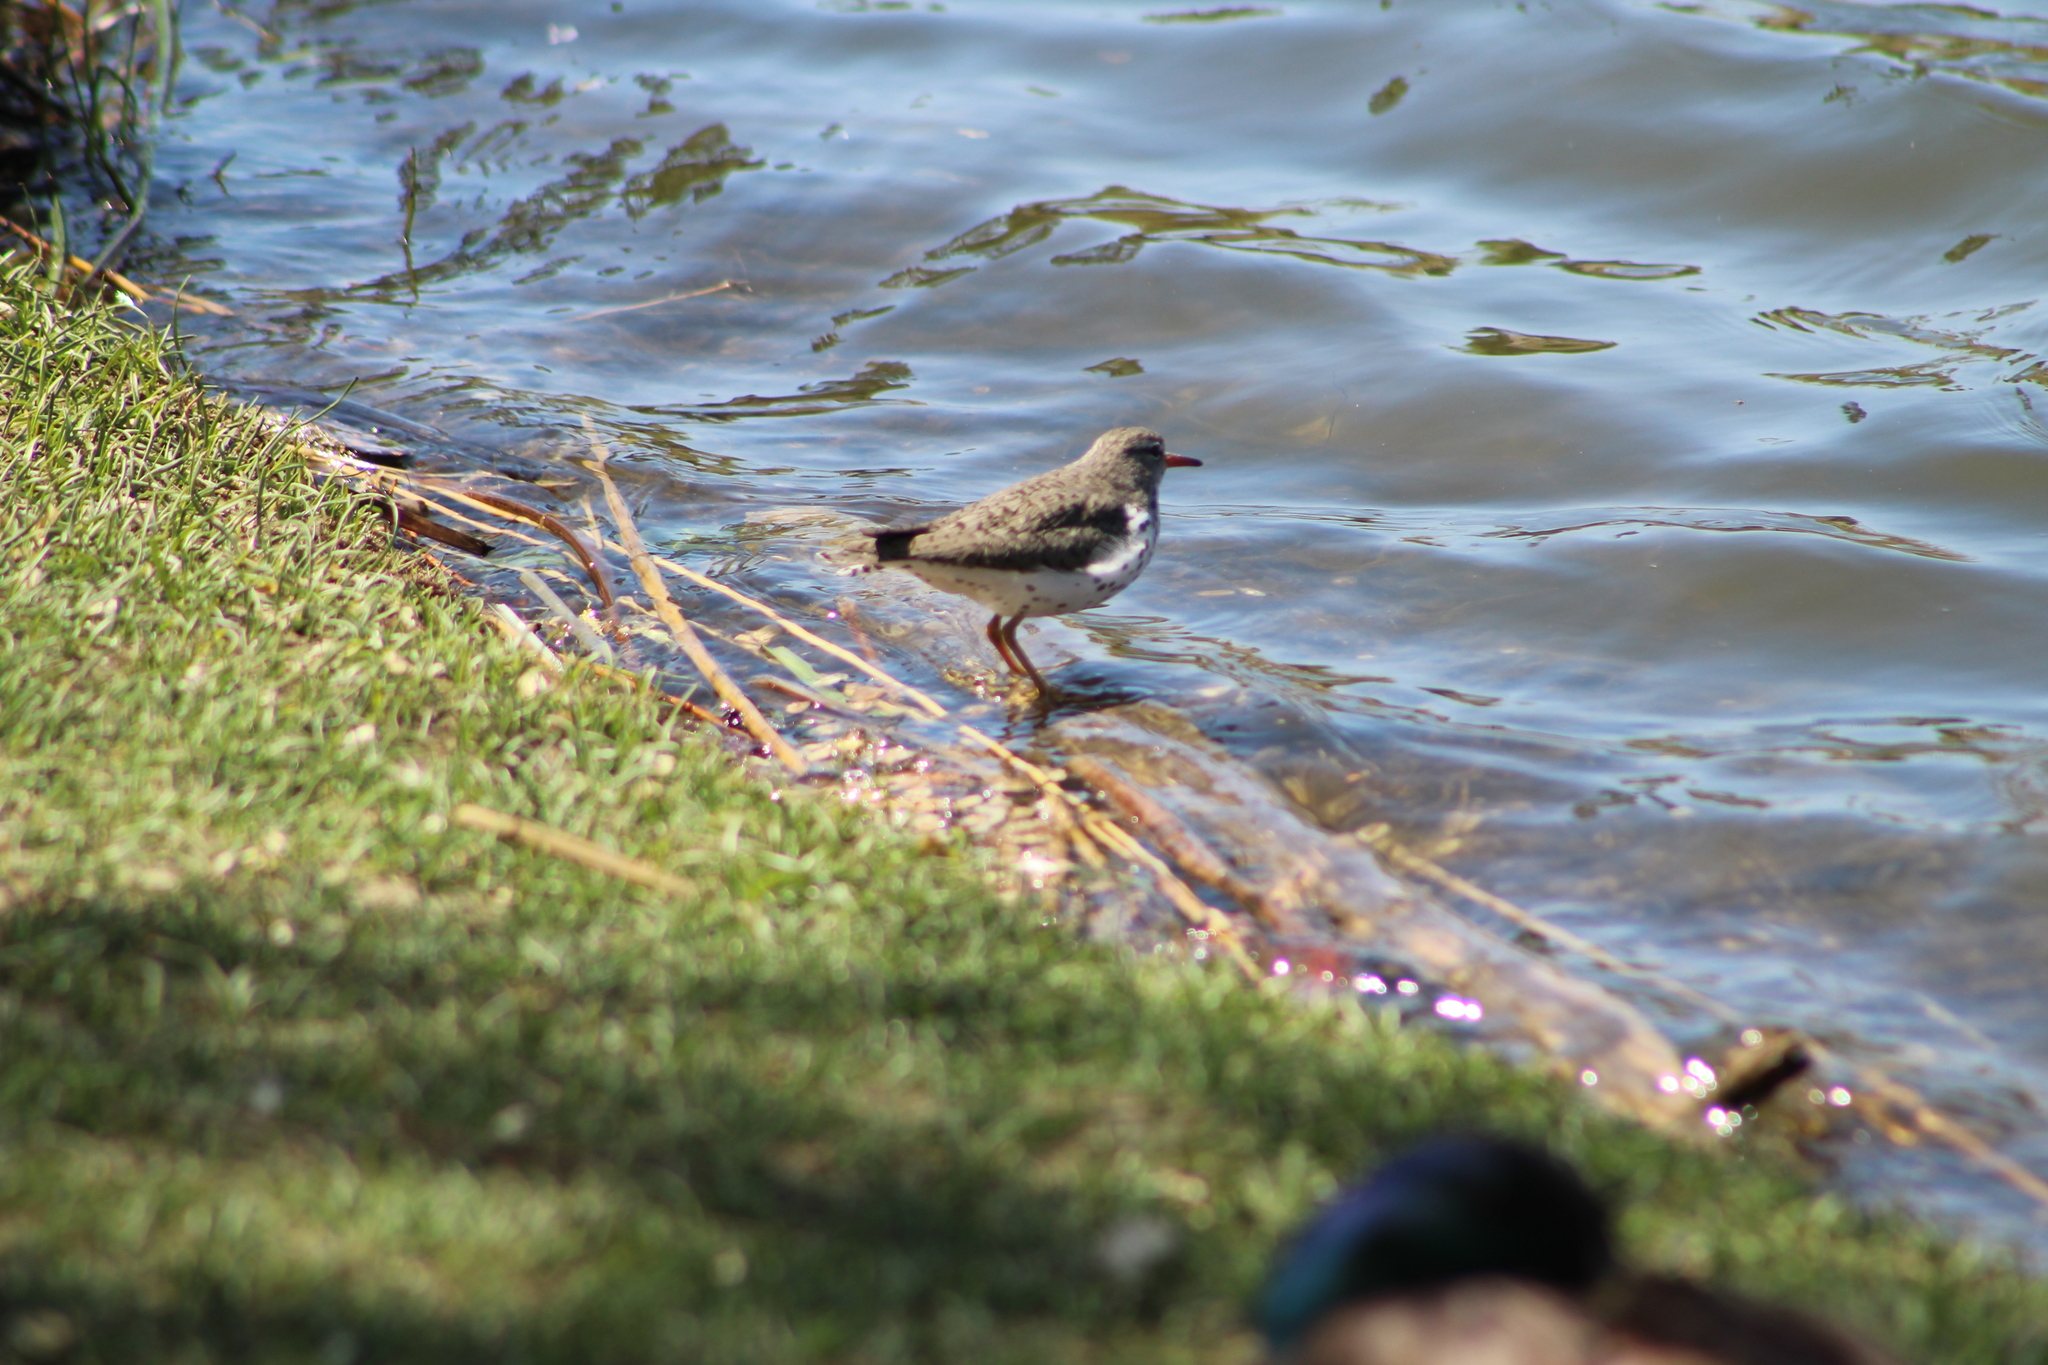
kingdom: Animalia
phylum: Chordata
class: Aves
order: Charadriiformes
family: Scolopacidae
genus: Actitis
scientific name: Actitis macularius
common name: Spotted sandpiper
